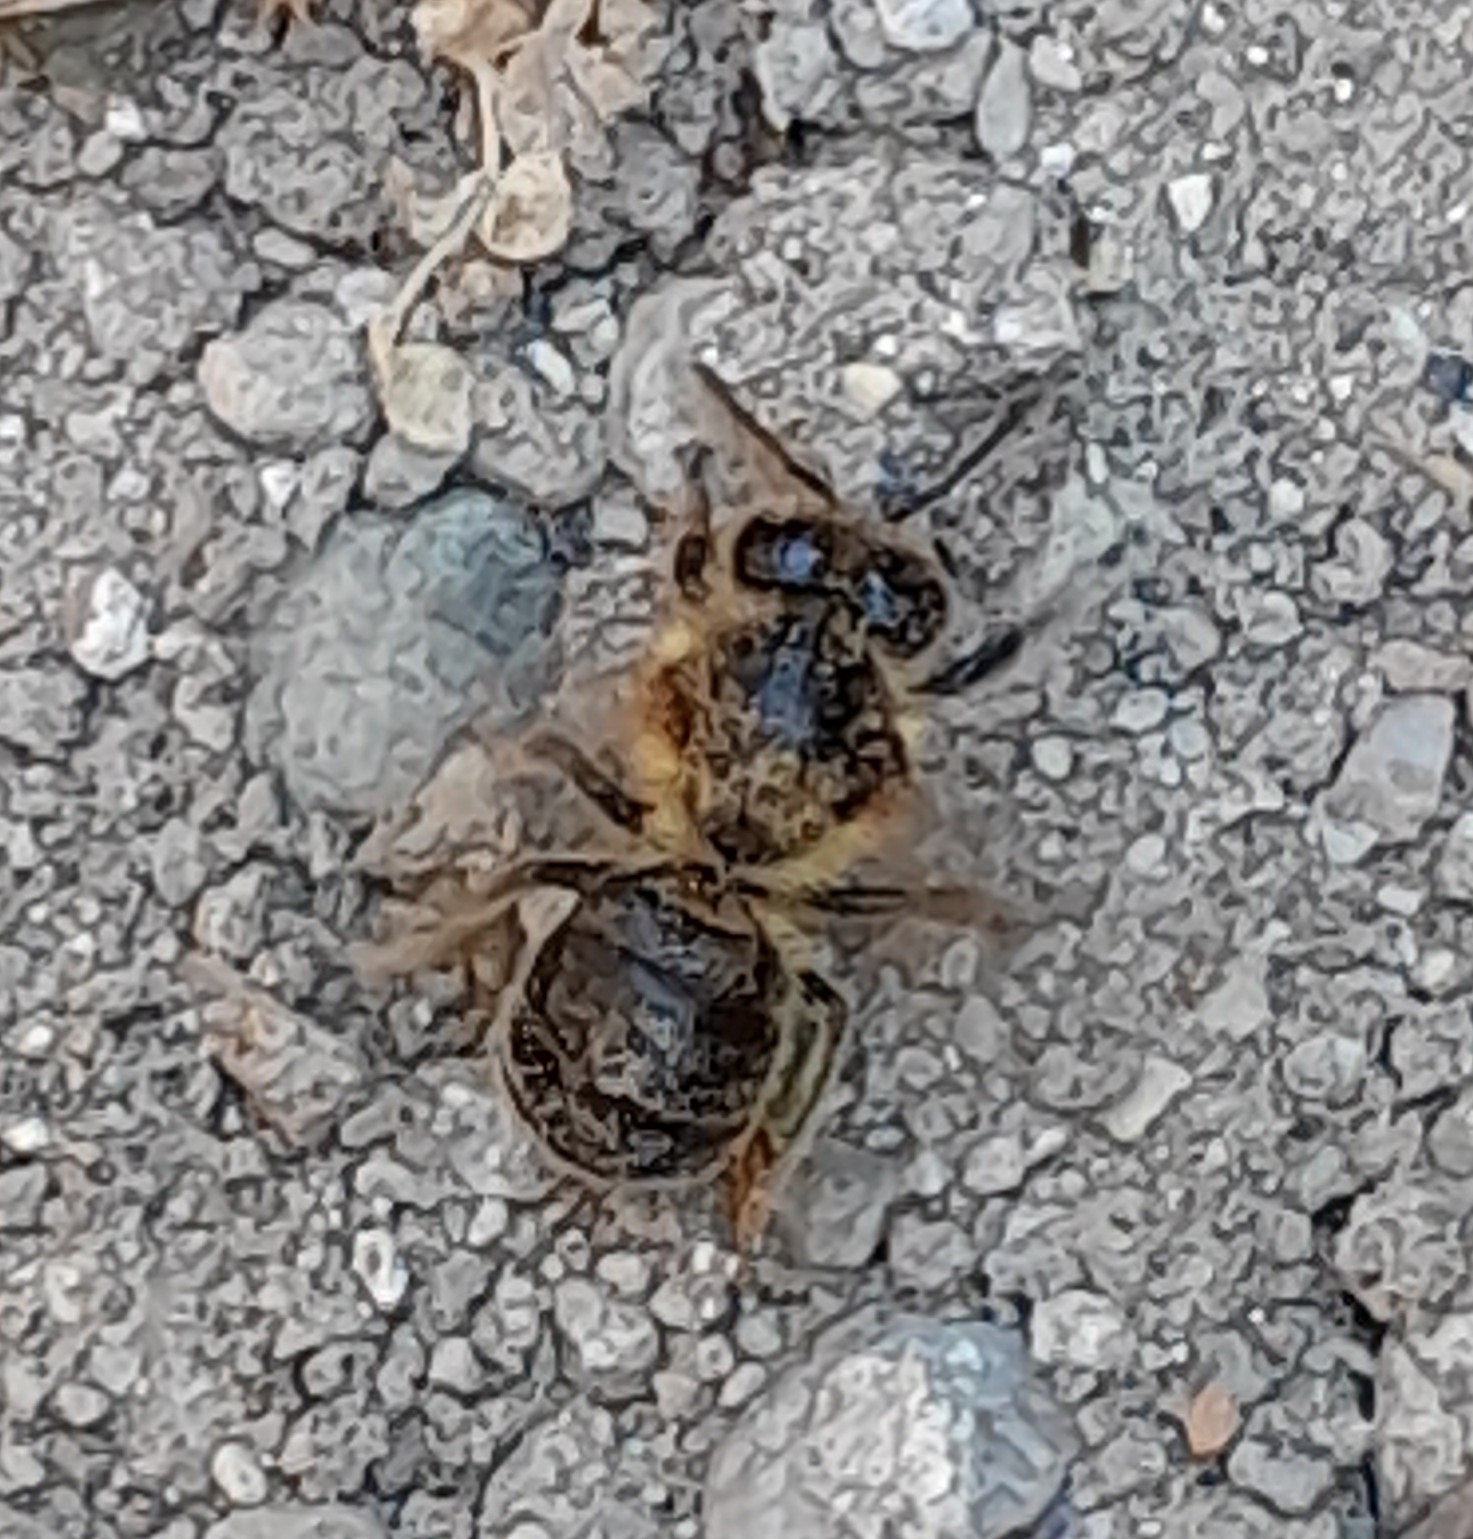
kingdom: Animalia
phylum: Arthropoda
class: Insecta
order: Hymenoptera
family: Apidae
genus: Apis
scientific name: Apis mellifera
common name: Honey bee
